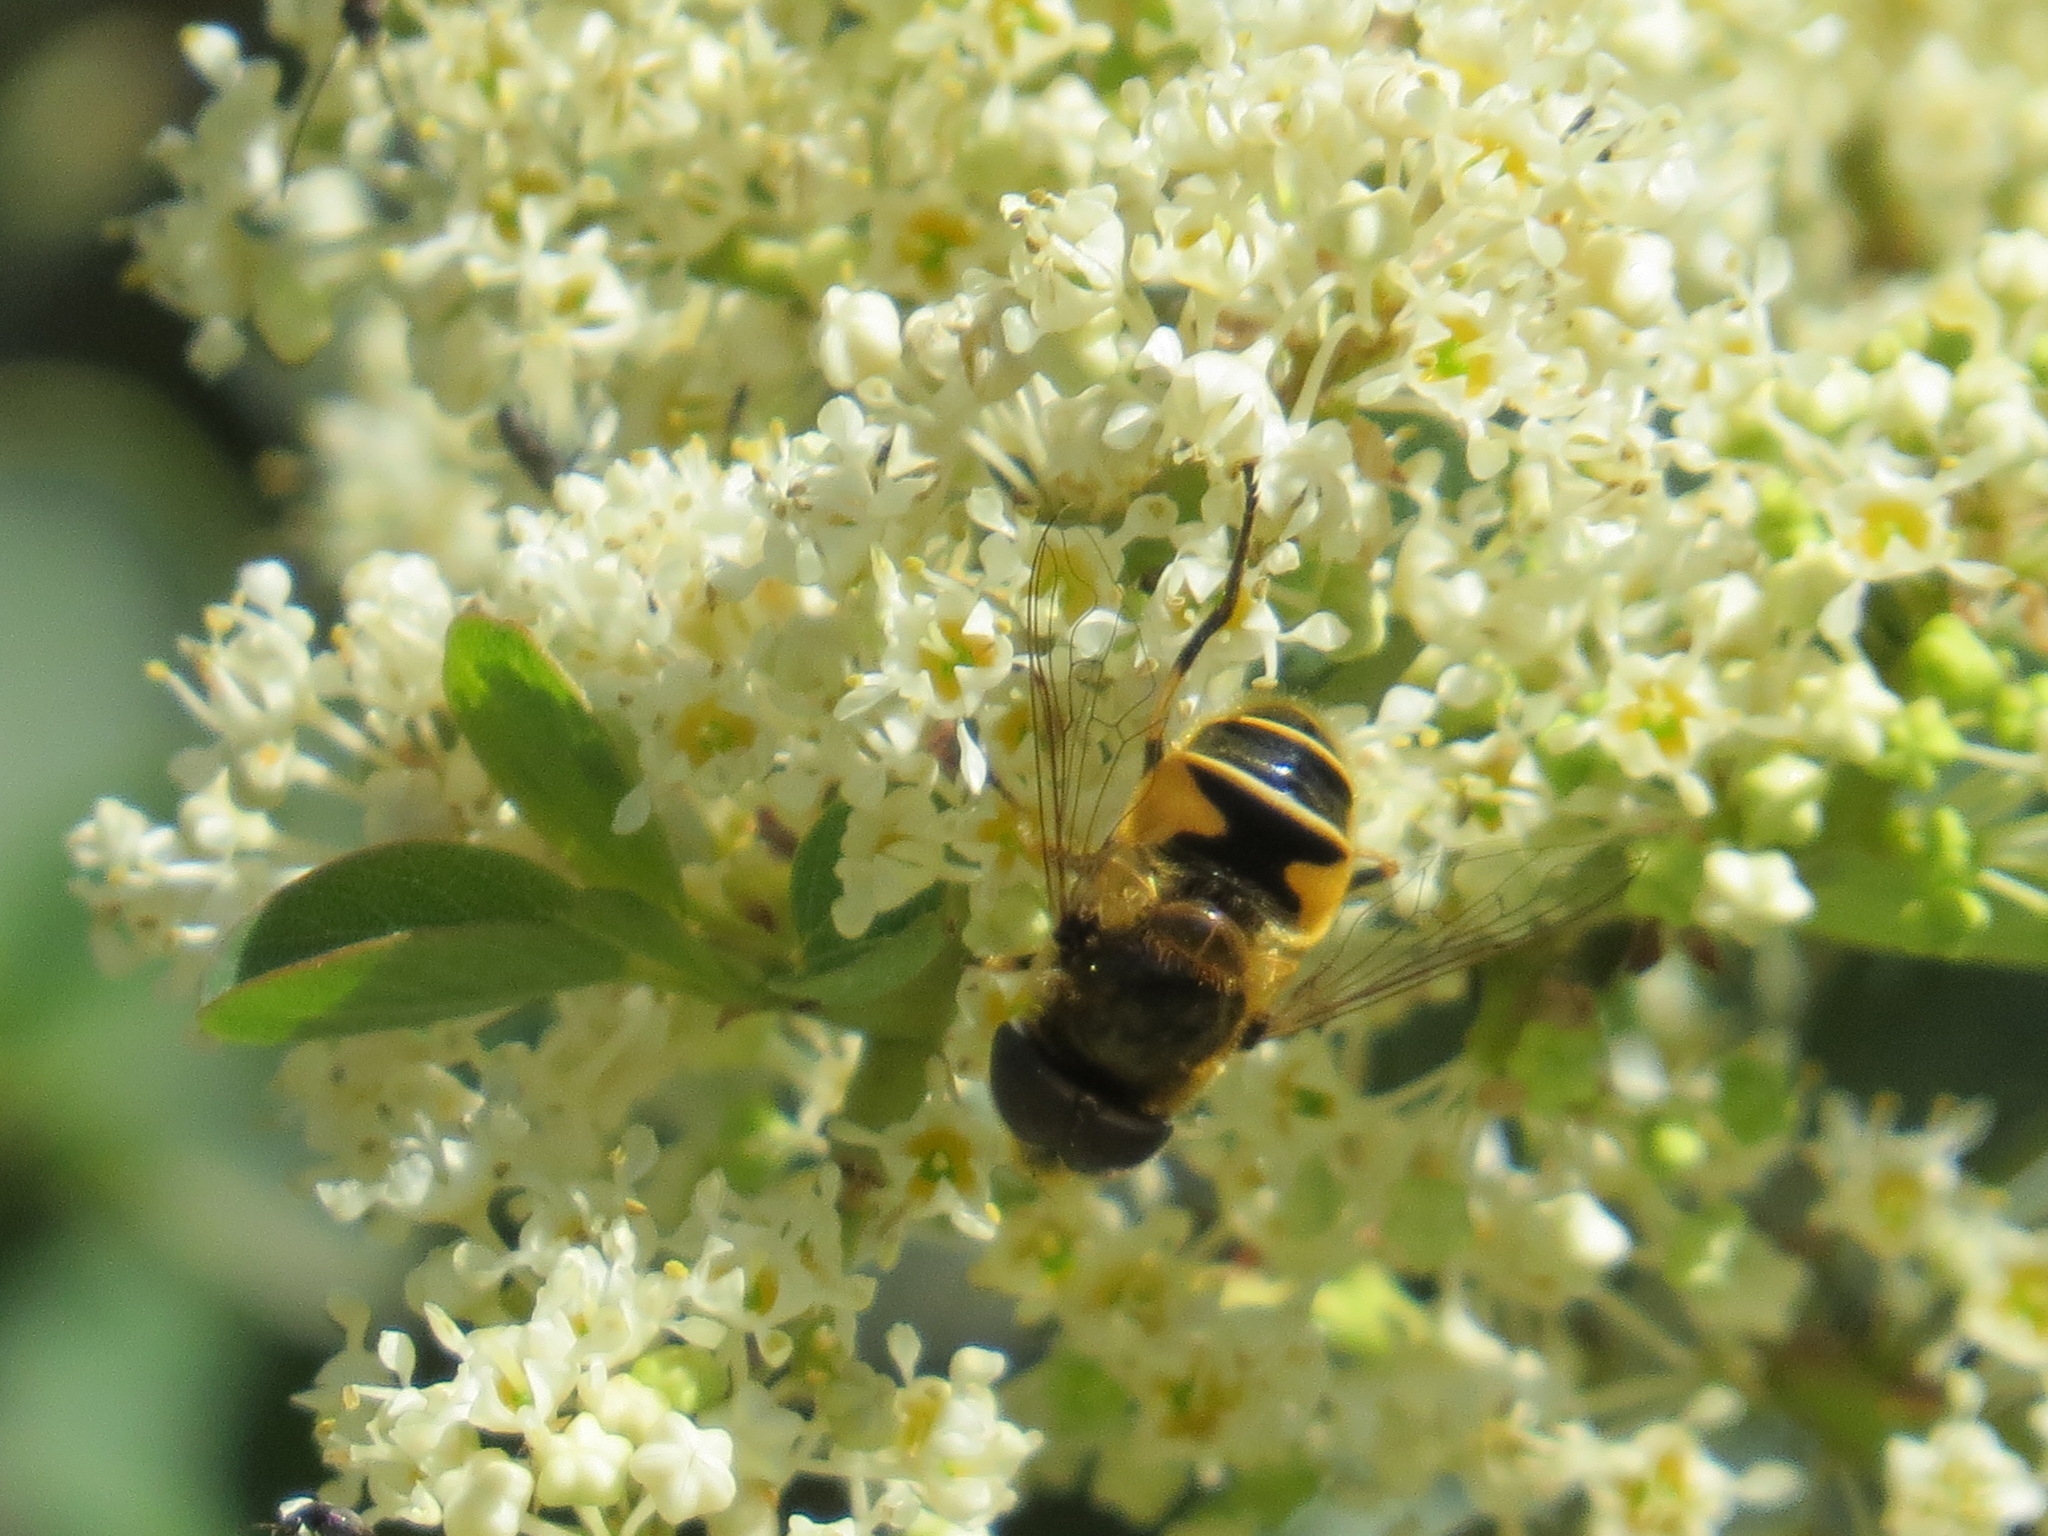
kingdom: Animalia
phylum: Arthropoda
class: Insecta
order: Diptera
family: Syrphidae
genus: Eristalis
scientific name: Eristalis nemorum
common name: Orange-spined drone fly
